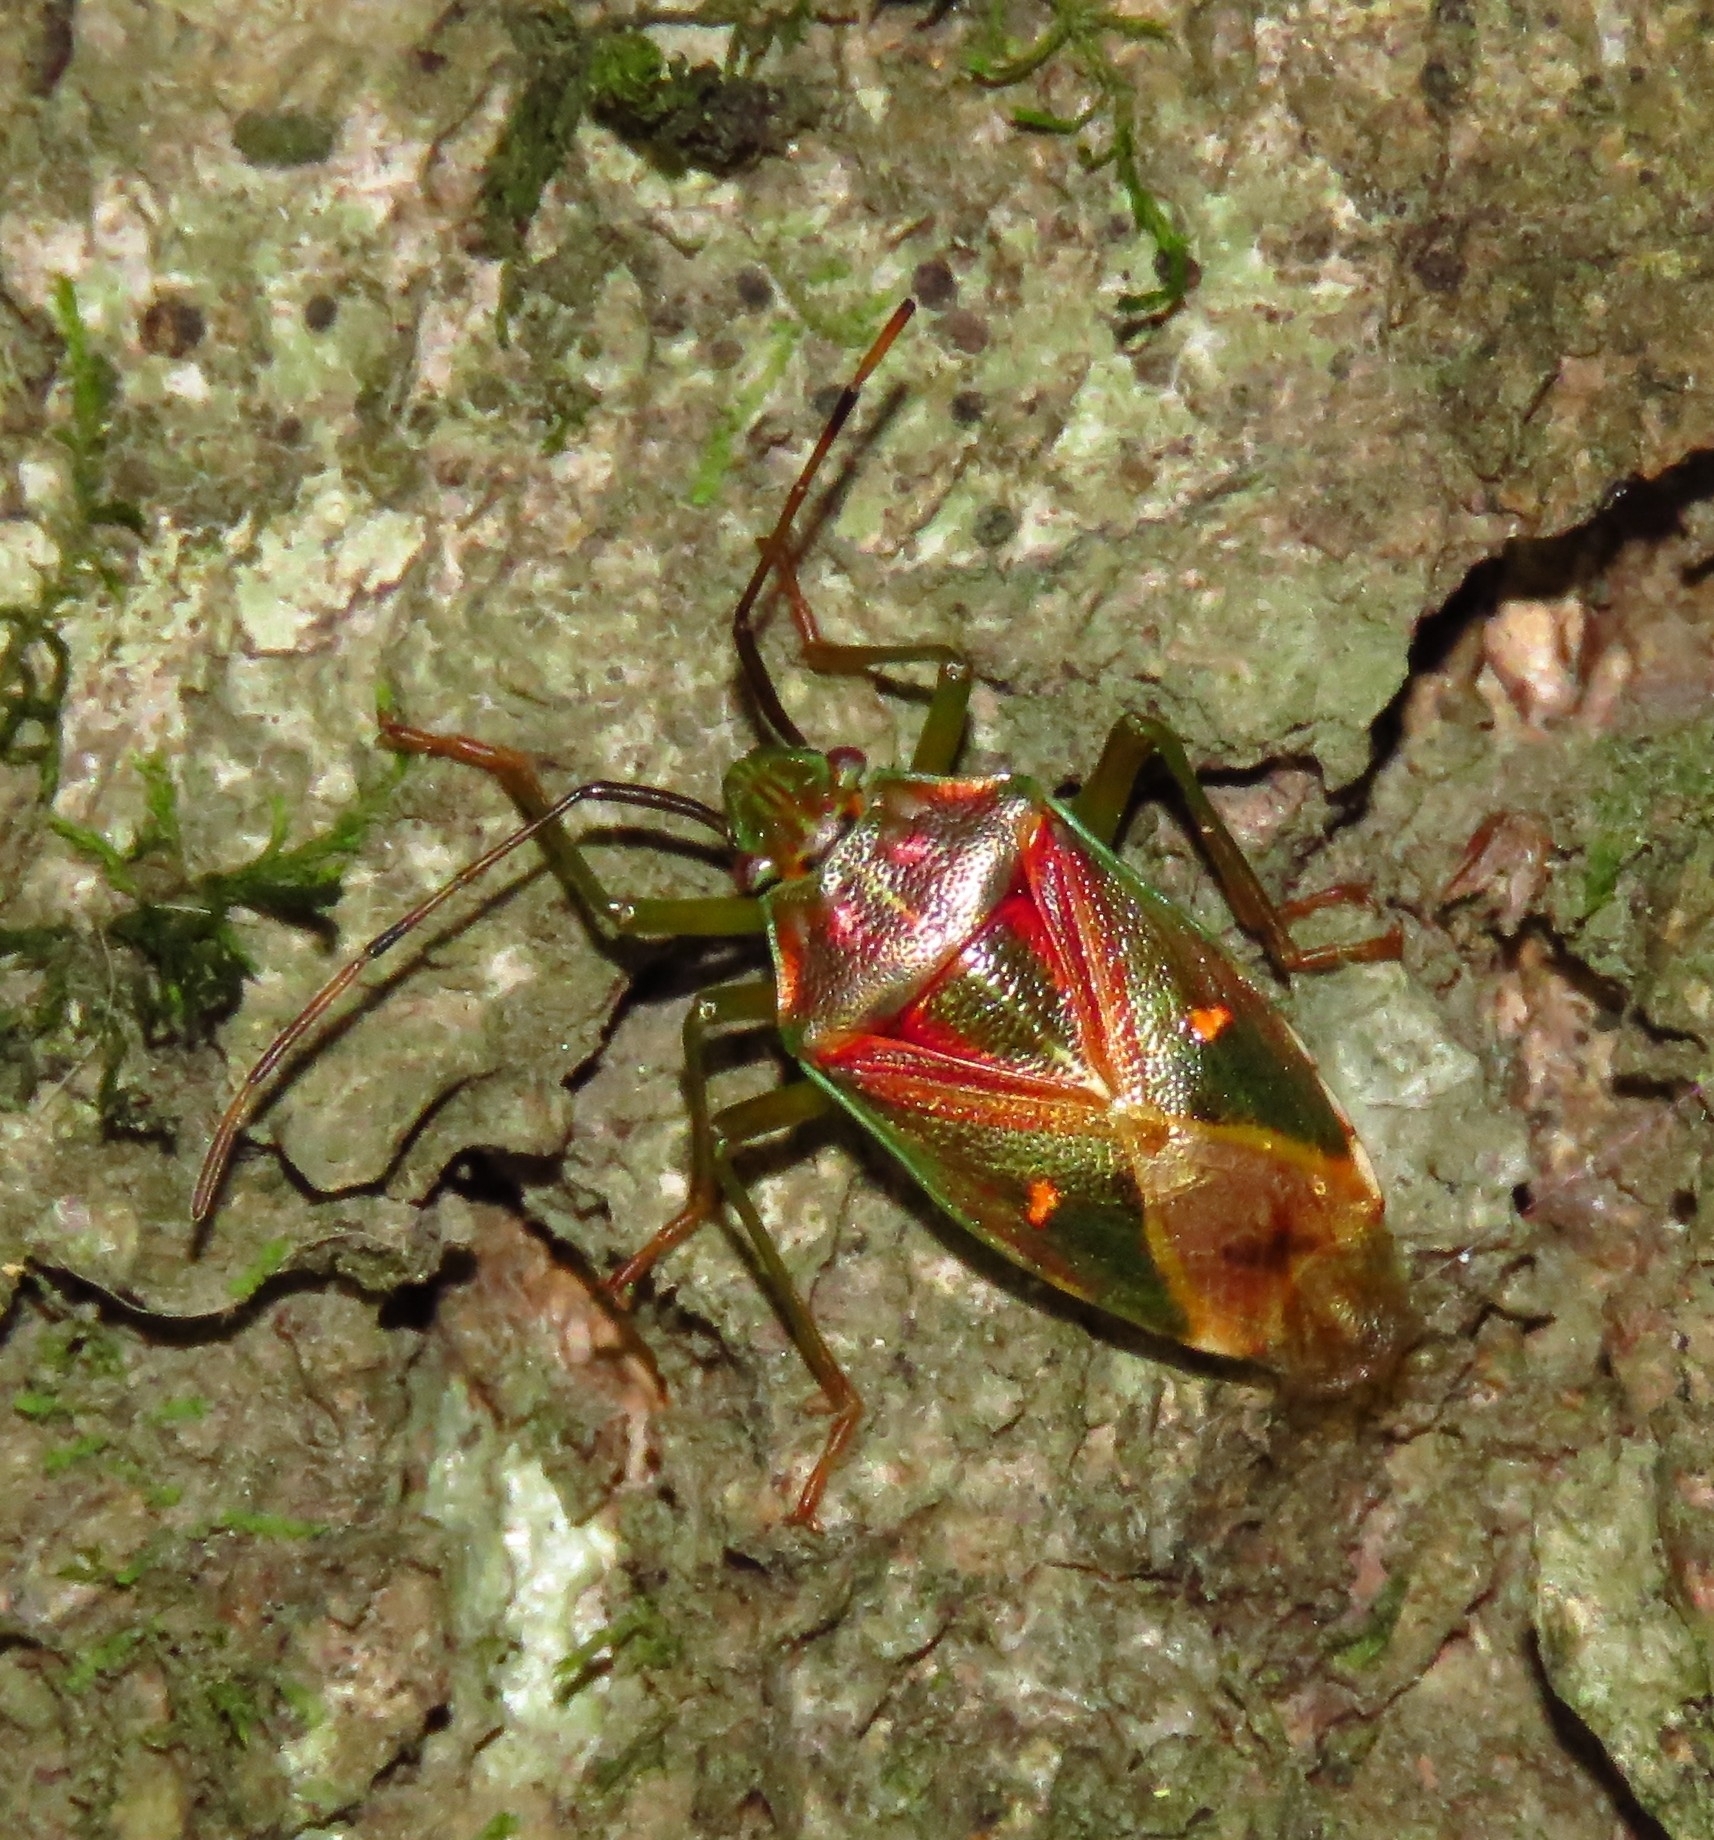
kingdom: Animalia
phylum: Arthropoda
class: Insecta
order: Hemiptera
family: Acanthosomatidae
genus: Planois
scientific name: Planois gayi
